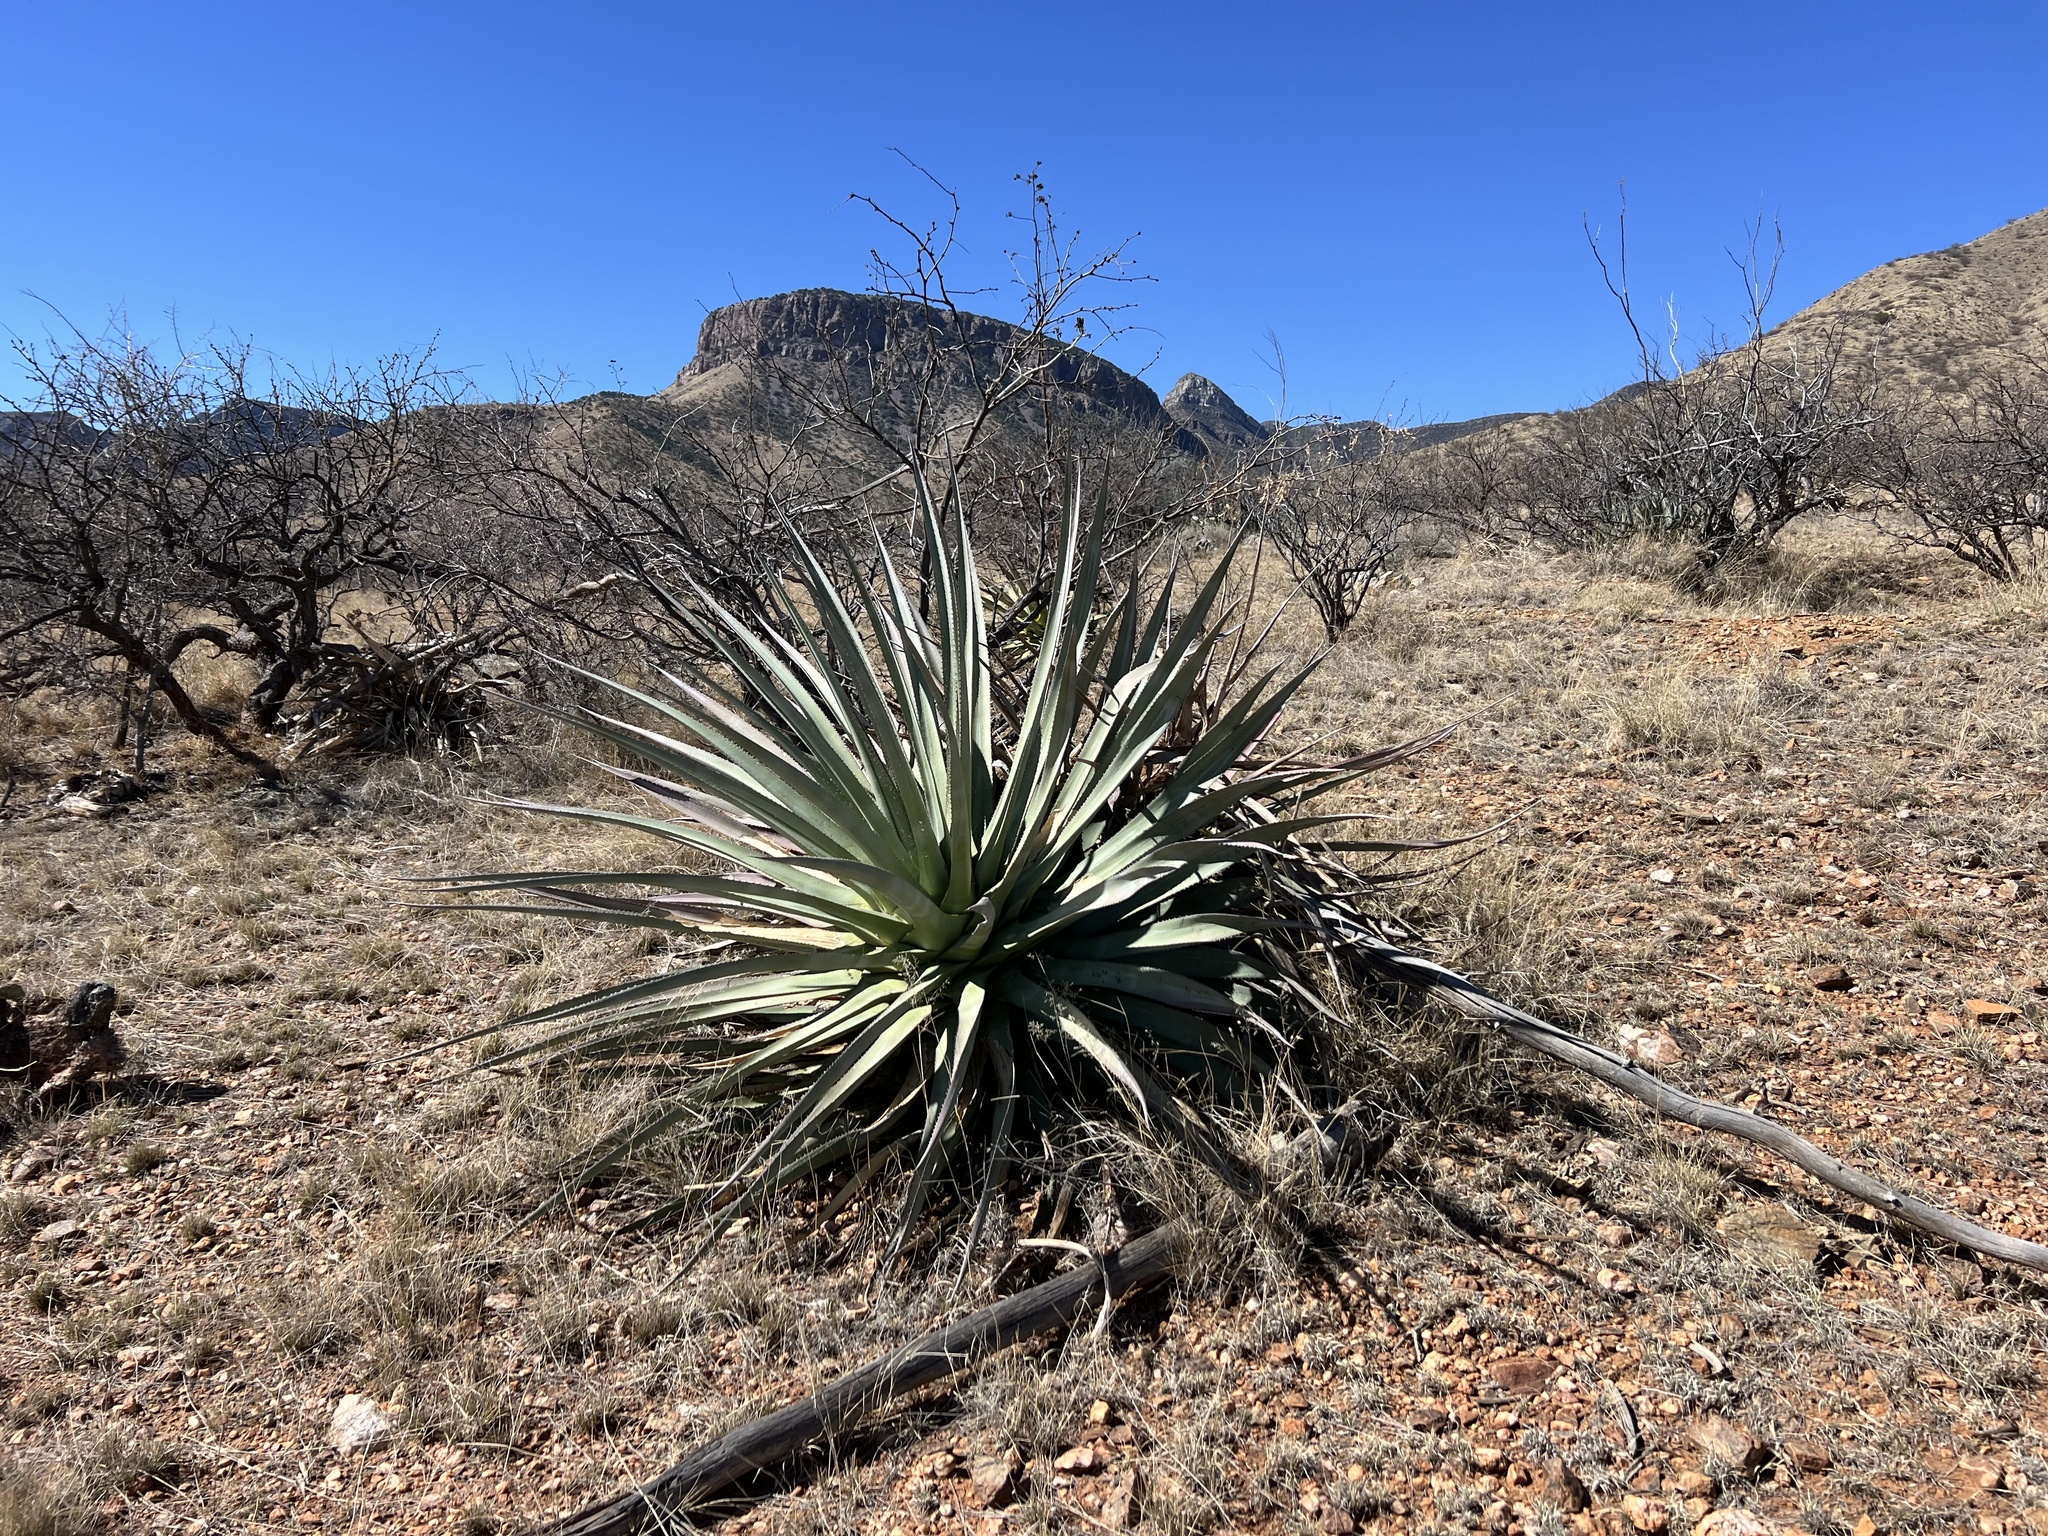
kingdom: Plantae
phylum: Tracheophyta
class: Liliopsida
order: Asparagales
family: Asparagaceae
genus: Agave
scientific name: Agave palmeri
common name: Palmer agave
